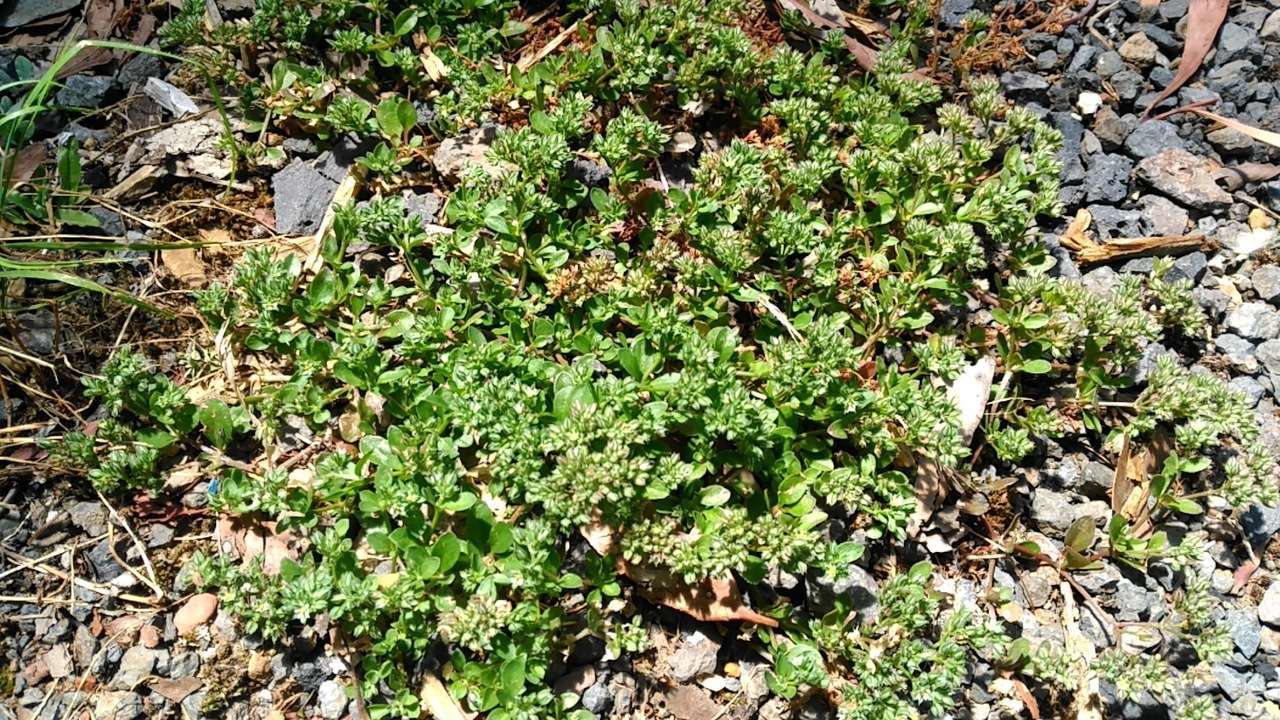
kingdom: Plantae
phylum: Tracheophyta
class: Magnoliopsida
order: Caryophyllales
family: Caryophyllaceae
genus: Polycarpon
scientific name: Polycarpon tetraphyllum
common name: Four-leaved all-seed
